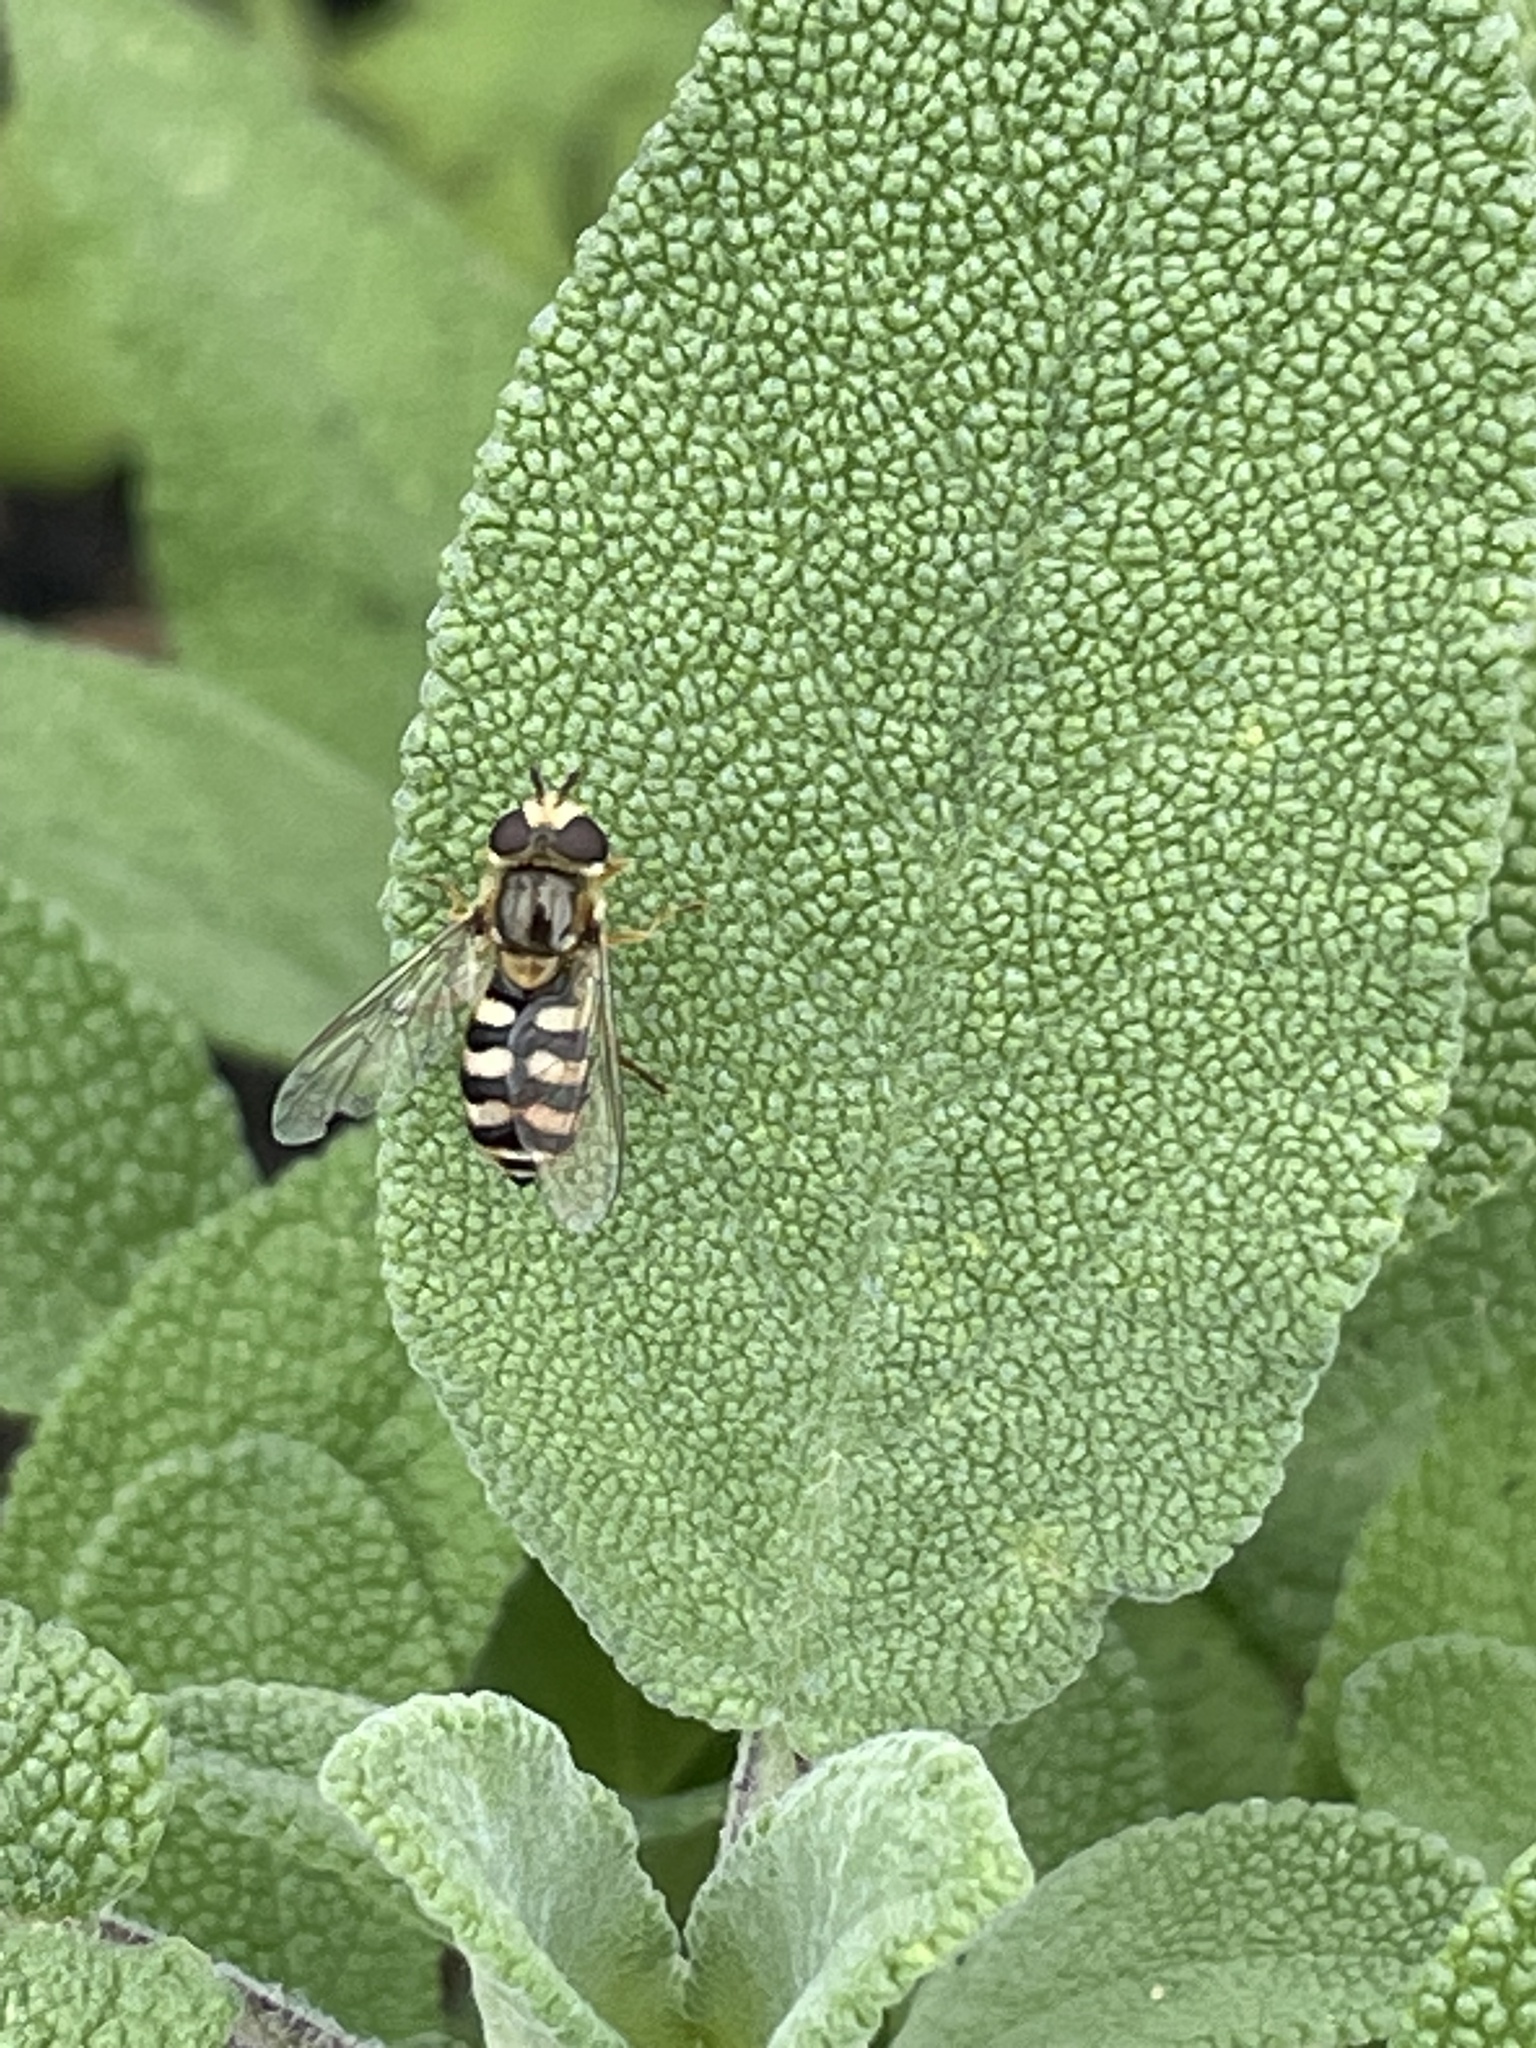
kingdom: Animalia
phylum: Arthropoda
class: Insecta
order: Diptera
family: Syrphidae
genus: Eupeodes
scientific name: Eupeodes
